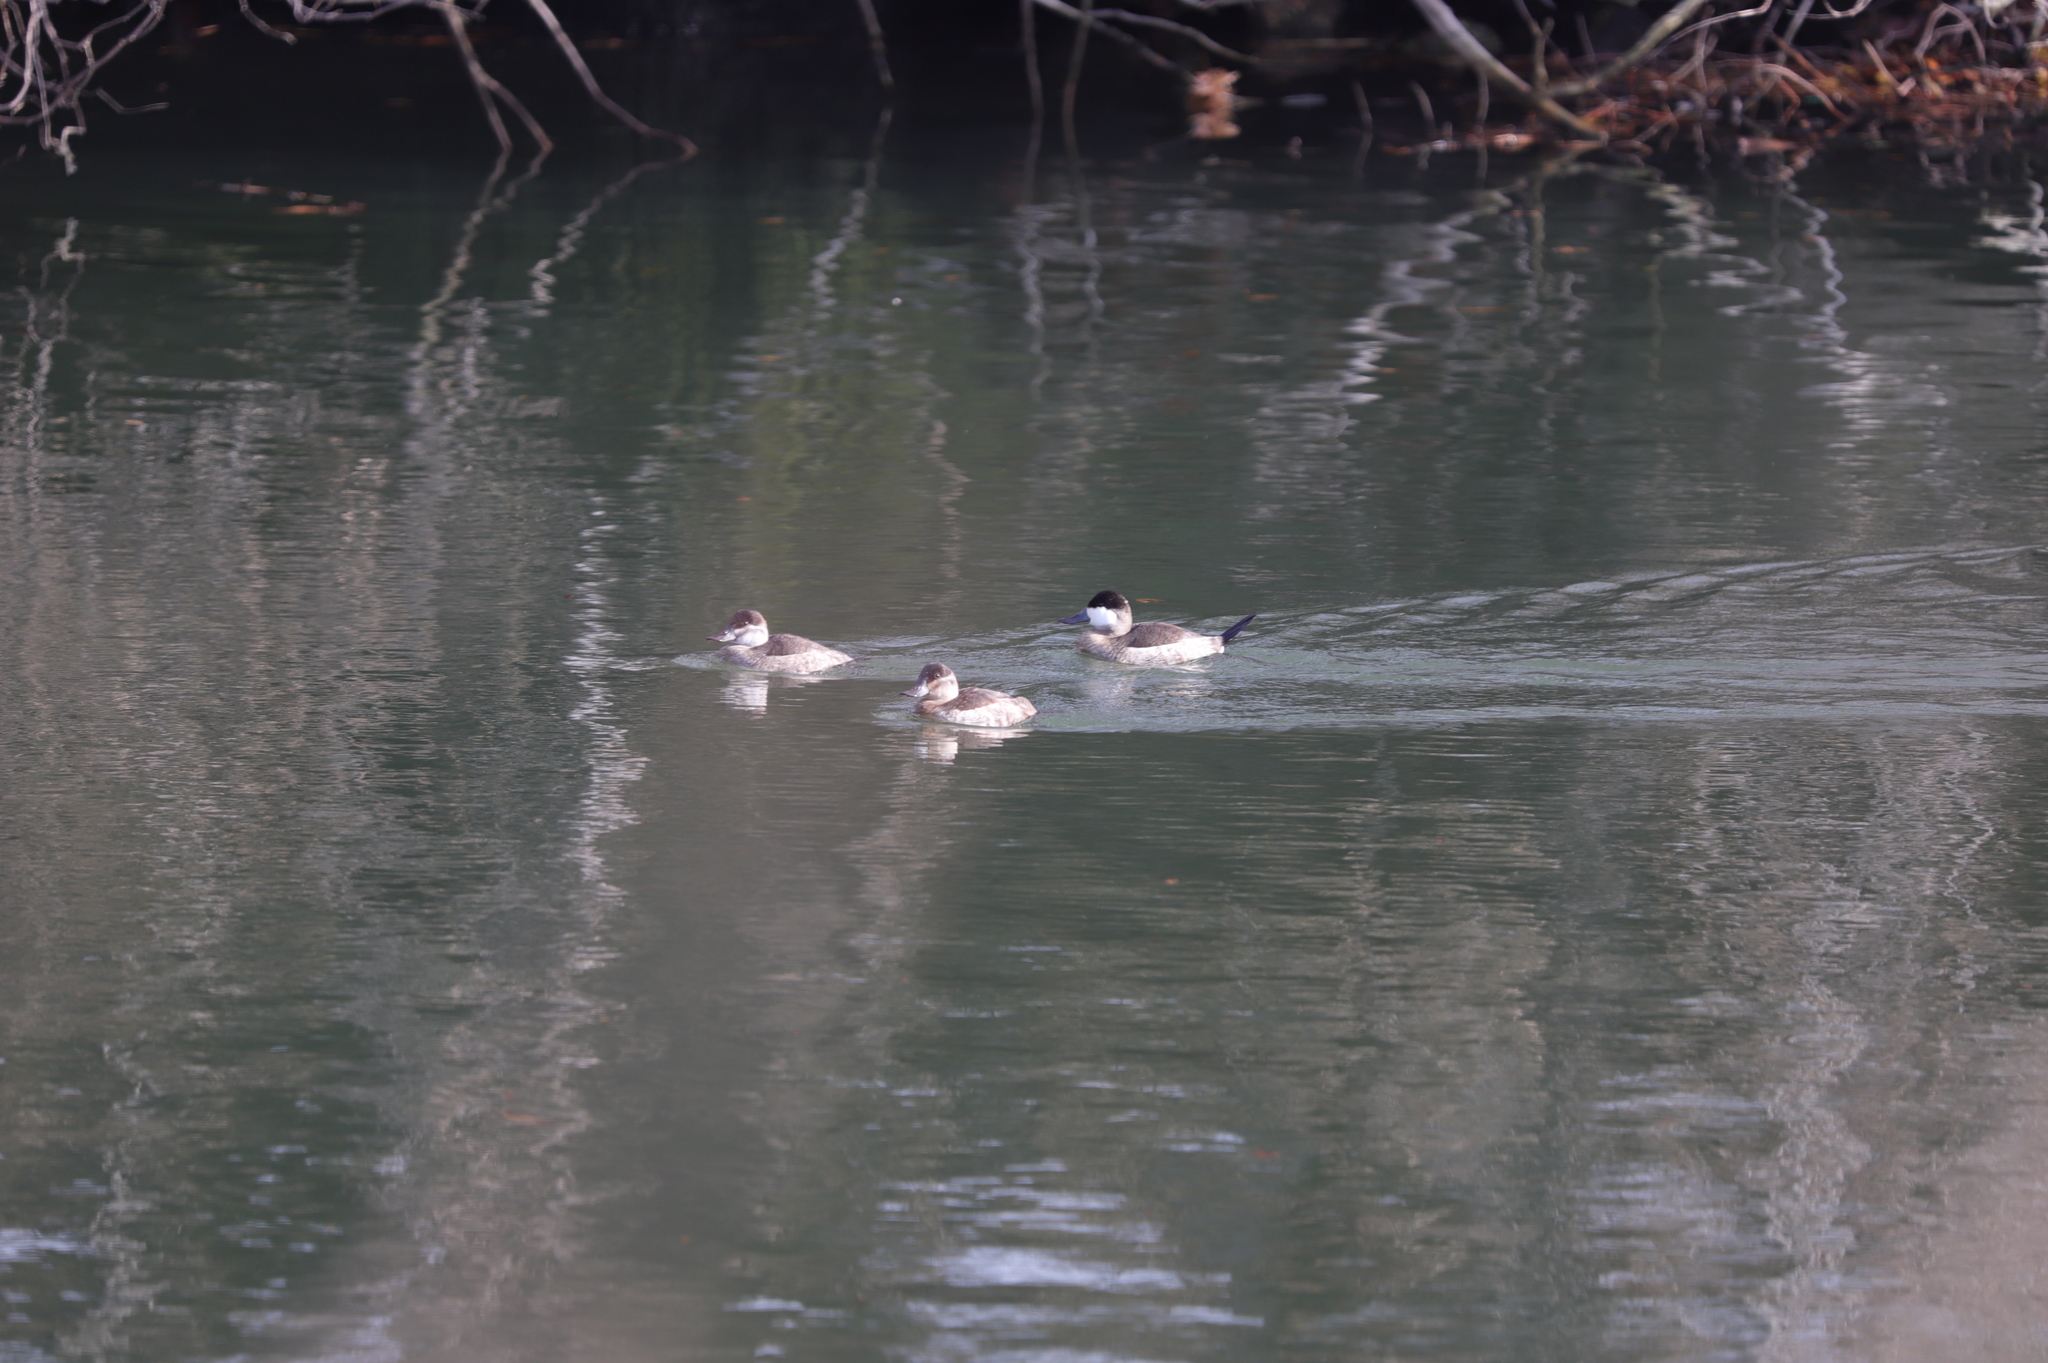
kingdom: Animalia
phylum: Chordata
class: Aves
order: Anseriformes
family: Anatidae
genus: Oxyura
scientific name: Oxyura jamaicensis
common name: Ruddy duck
